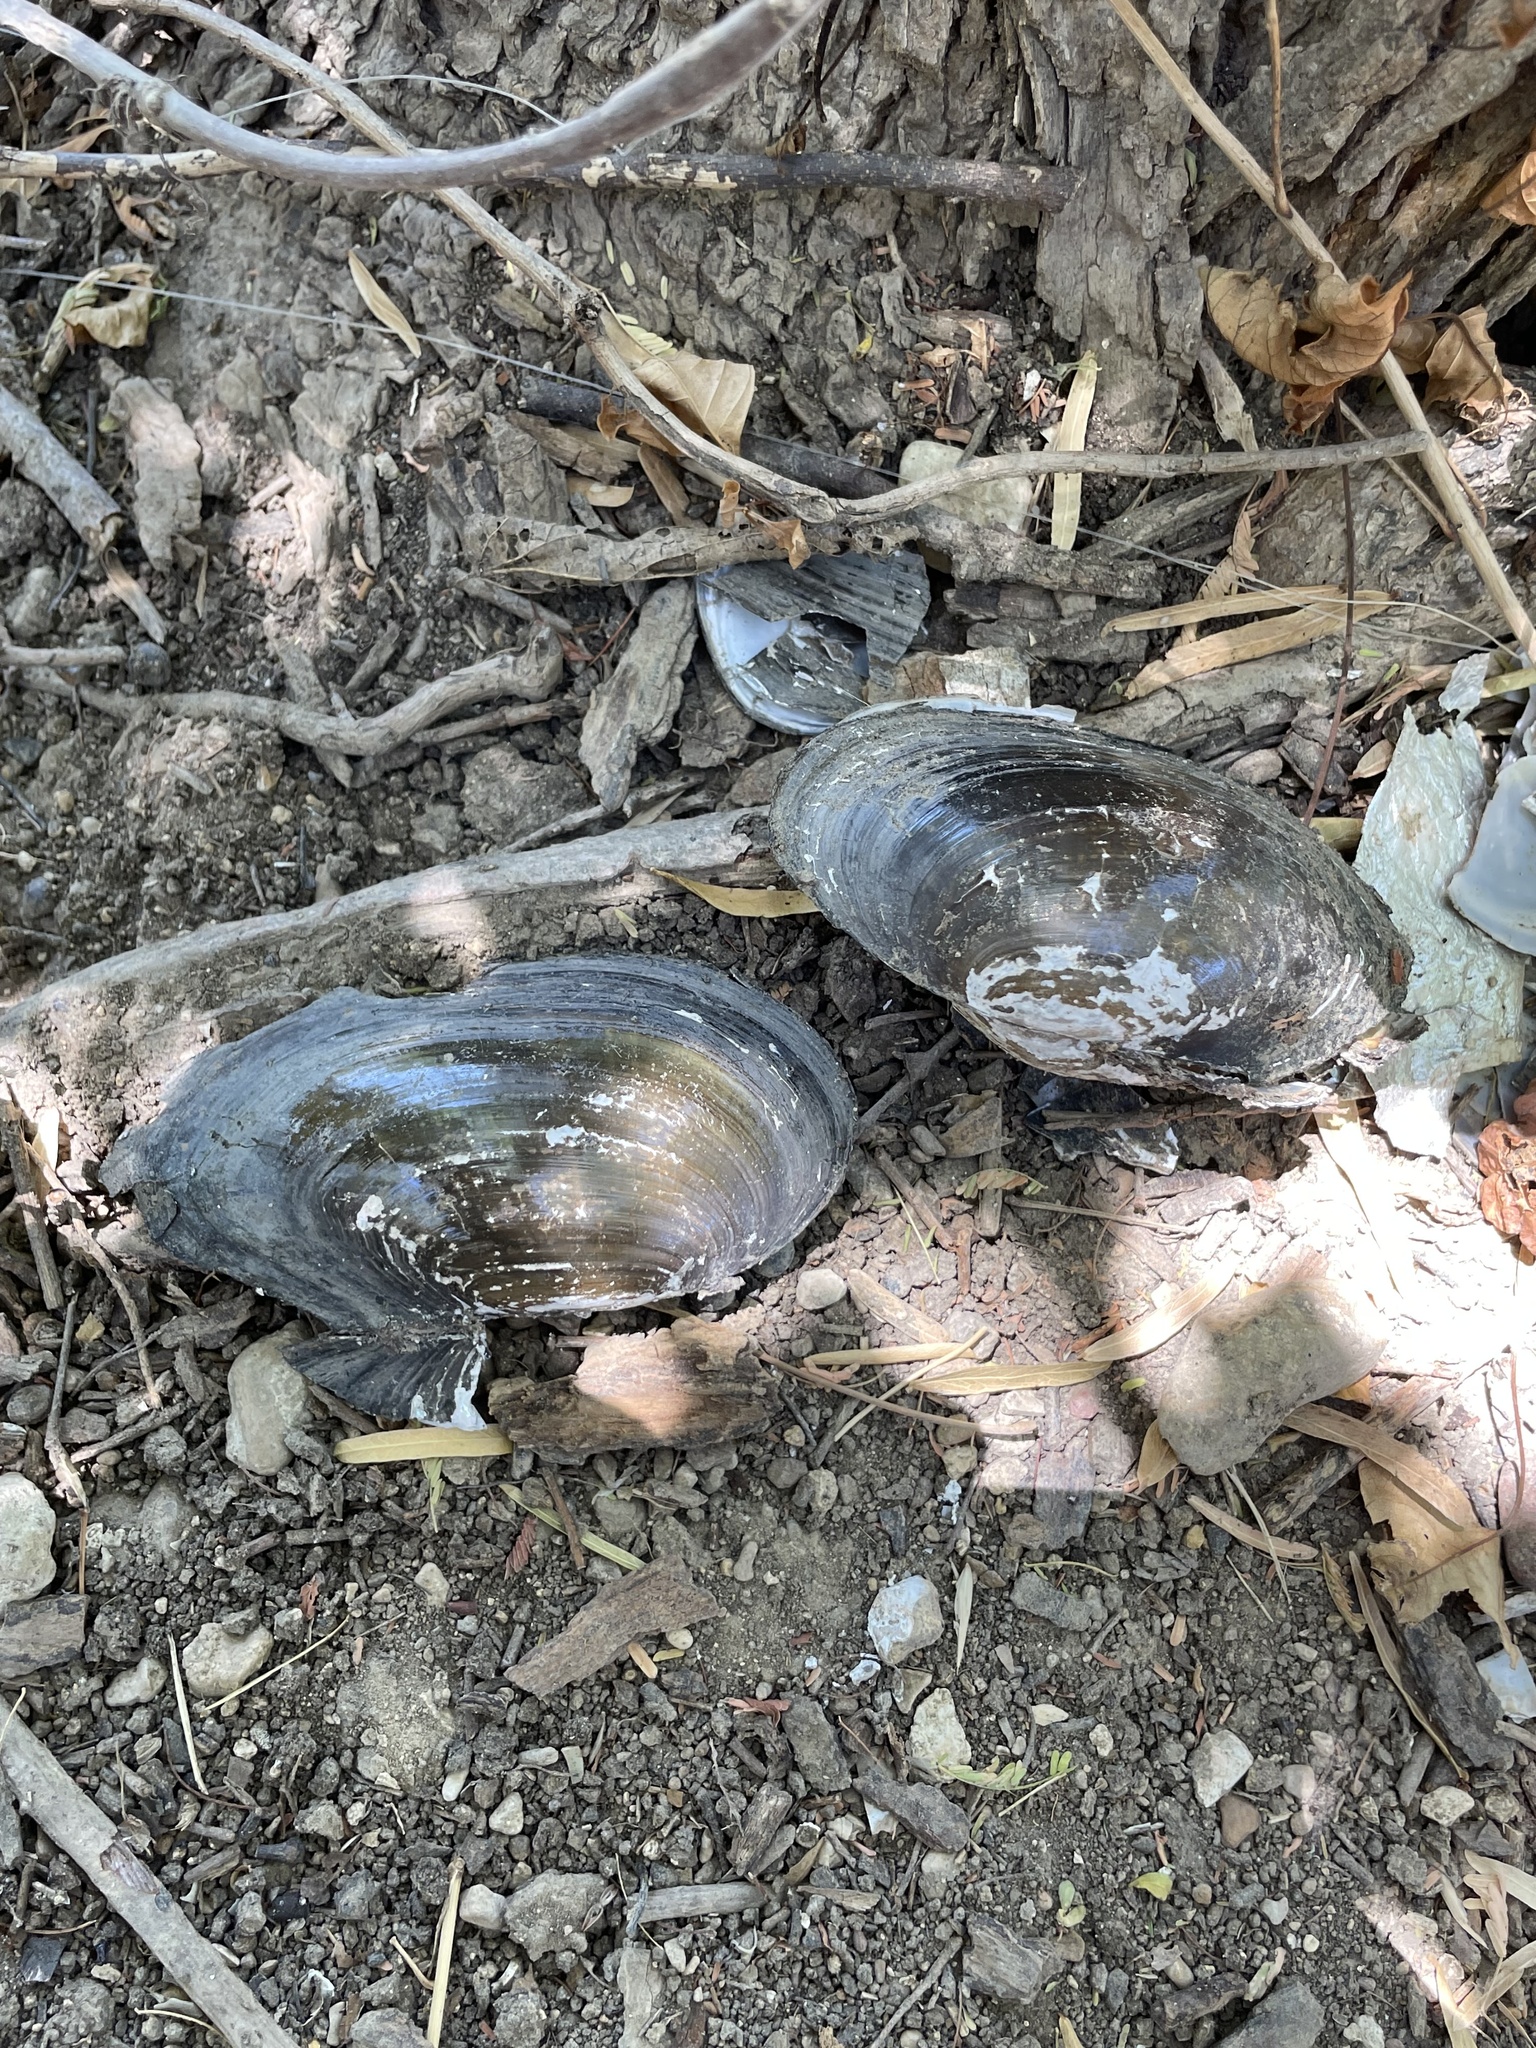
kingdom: Animalia
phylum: Mollusca
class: Bivalvia
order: Unionida
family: Unionidae
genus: Utterbackia
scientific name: Utterbackia imbecillis
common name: Paper pondshell
